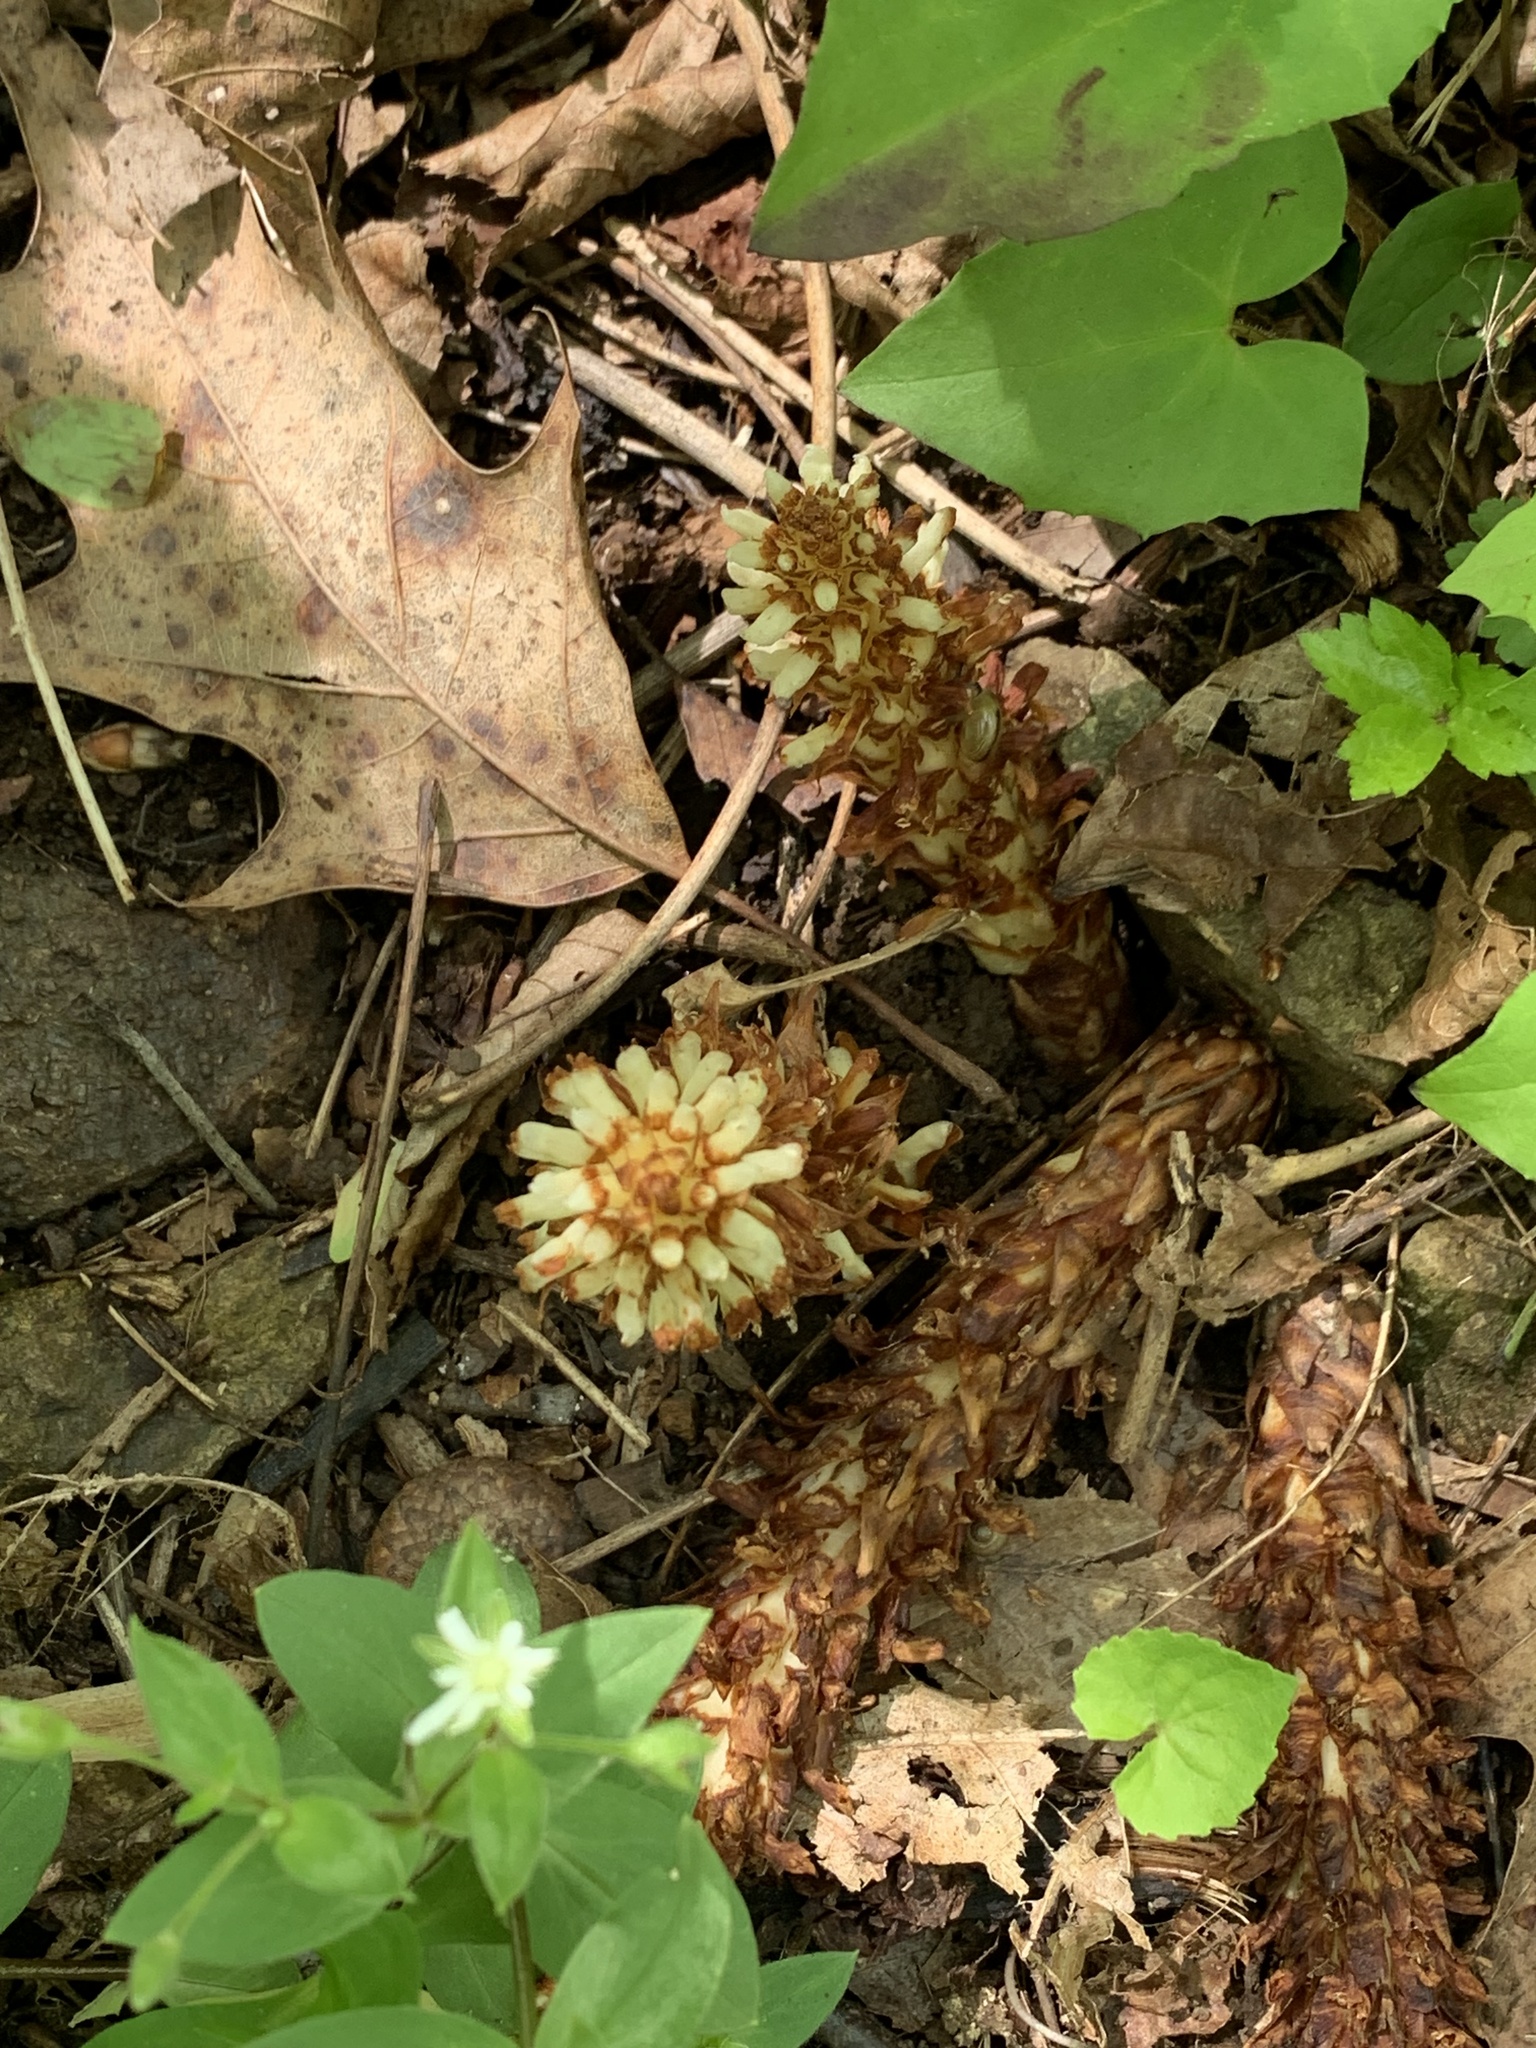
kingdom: Plantae
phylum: Tracheophyta
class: Magnoliopsida
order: Lamiales
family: Orobanchaceae
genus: Conopholis
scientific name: Conopholis americana
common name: American cancer-root
